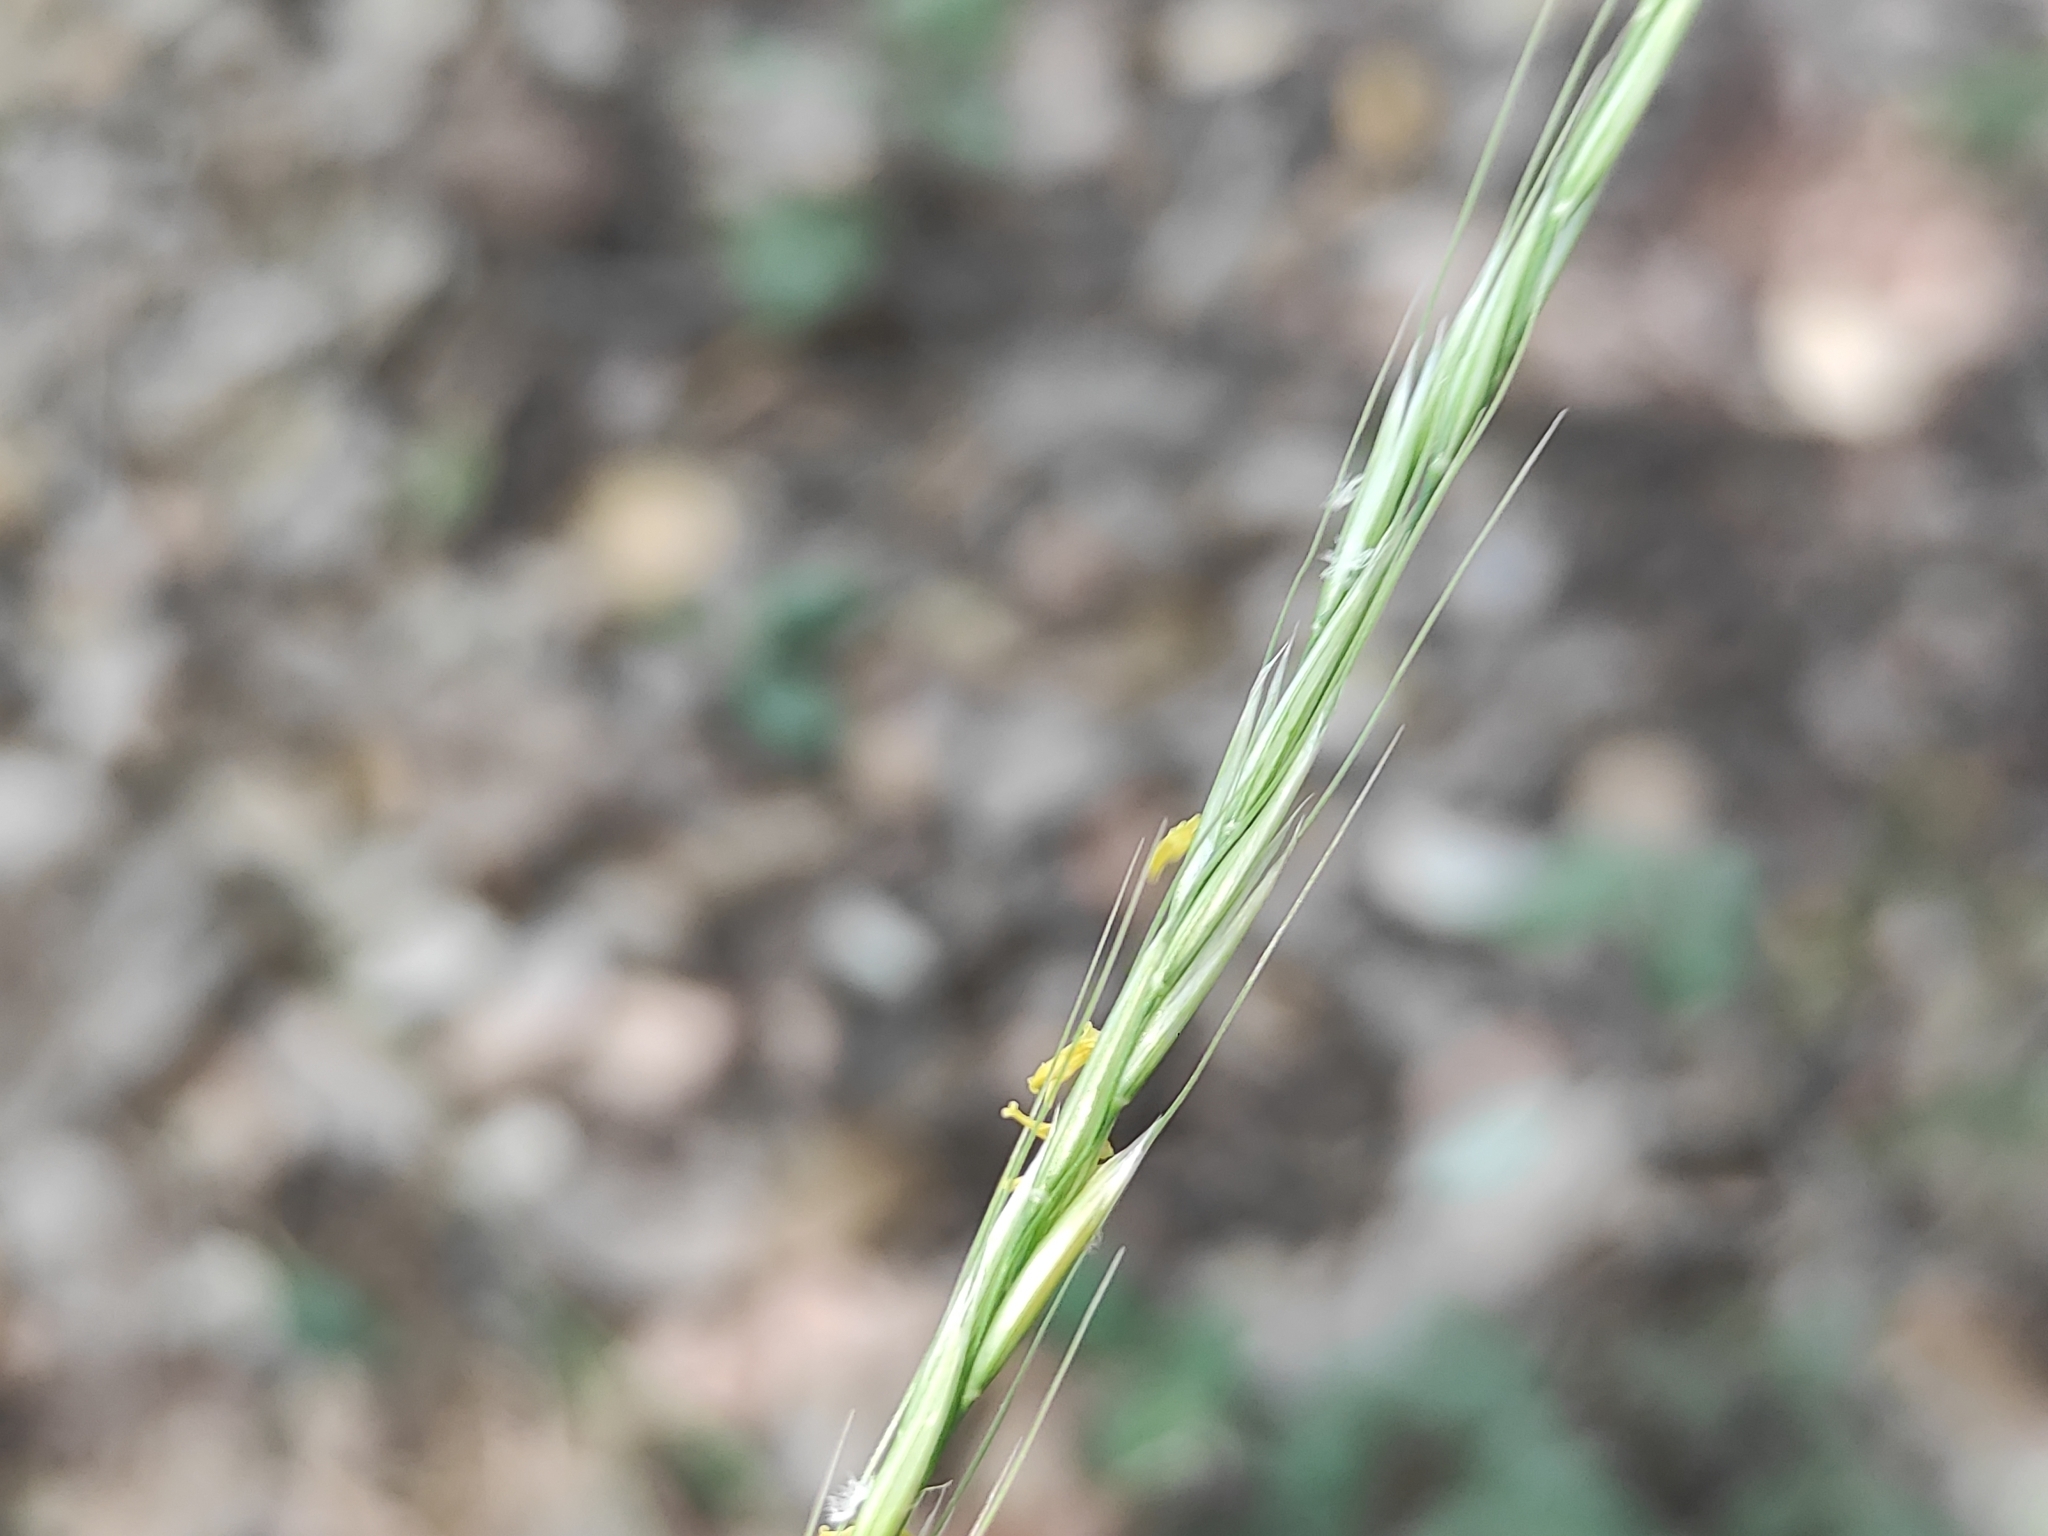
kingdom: Plantae
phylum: Tracheophyta
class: Liliopsida
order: Poales
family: Poaceae
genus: Achnatherum
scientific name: Achnatherum bromoides
